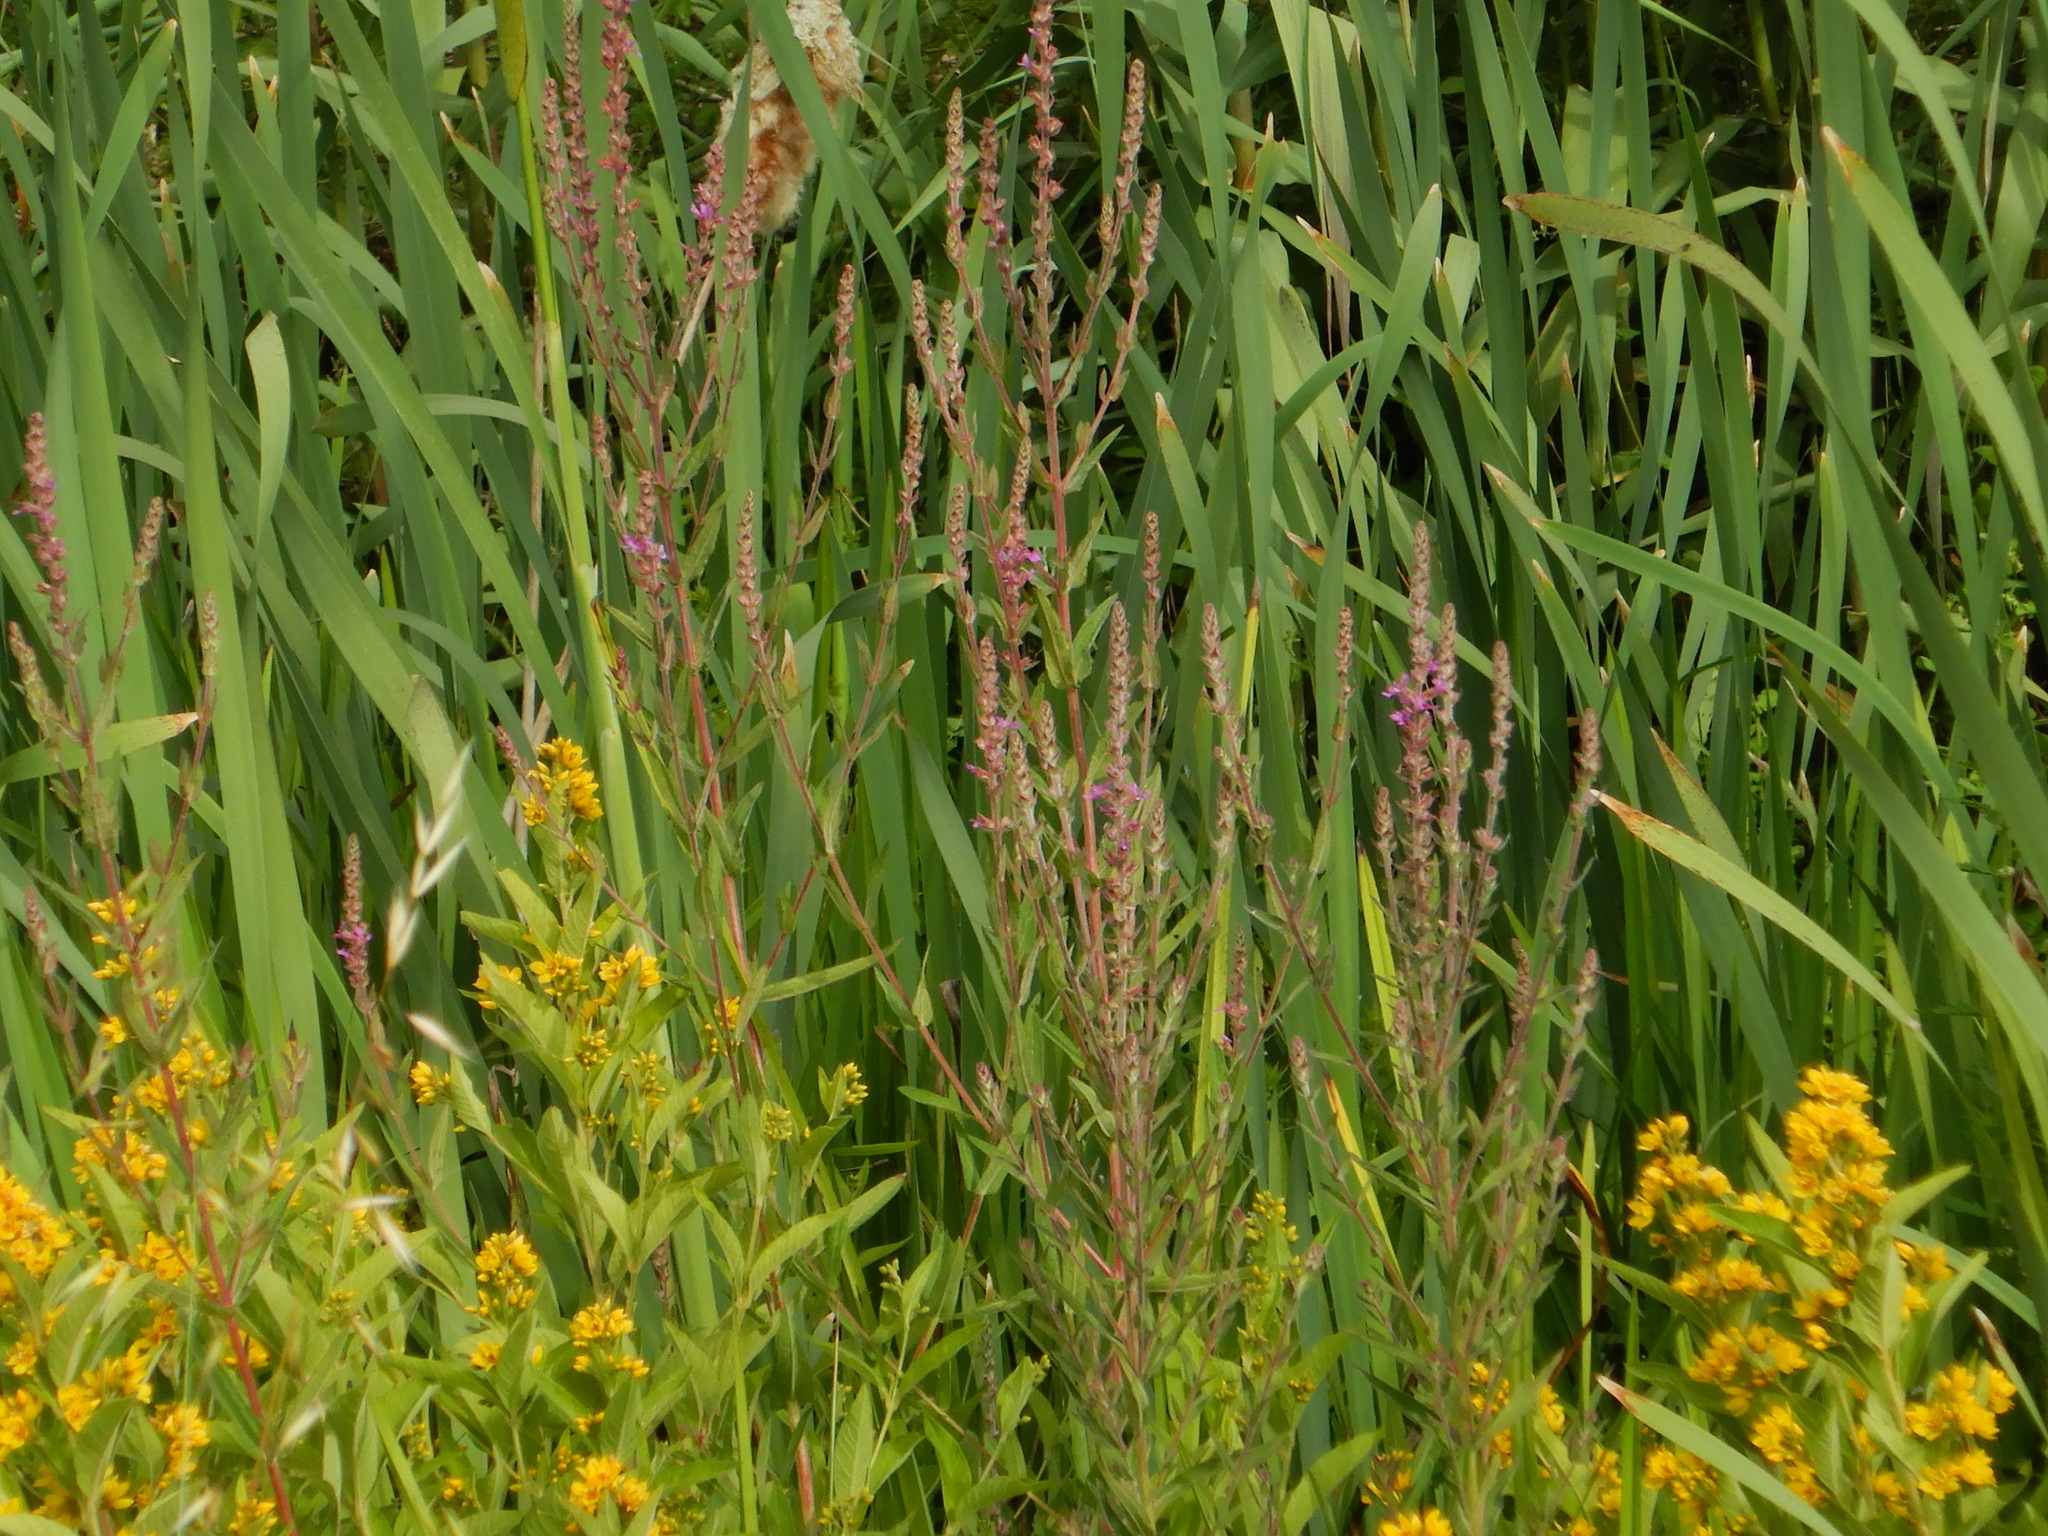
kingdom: Plantae
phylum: Tracheophyta
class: Magnoliopsida
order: Myrtales
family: Lythraceae
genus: Lythrum
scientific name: Lythrum salicaria
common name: Purple loosestrife
